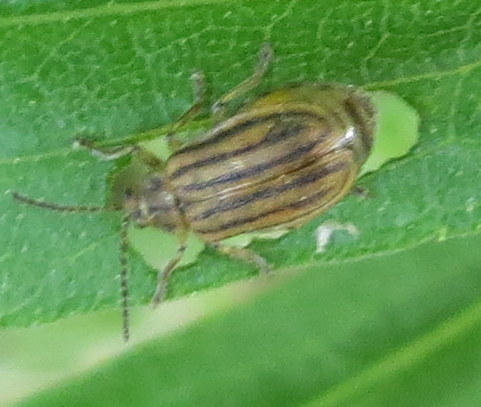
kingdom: Animalia
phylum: Arthropoda
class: Insecta
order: Coleoptera
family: Chrysomelidae
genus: Ophraella
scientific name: Ophraella conferta
